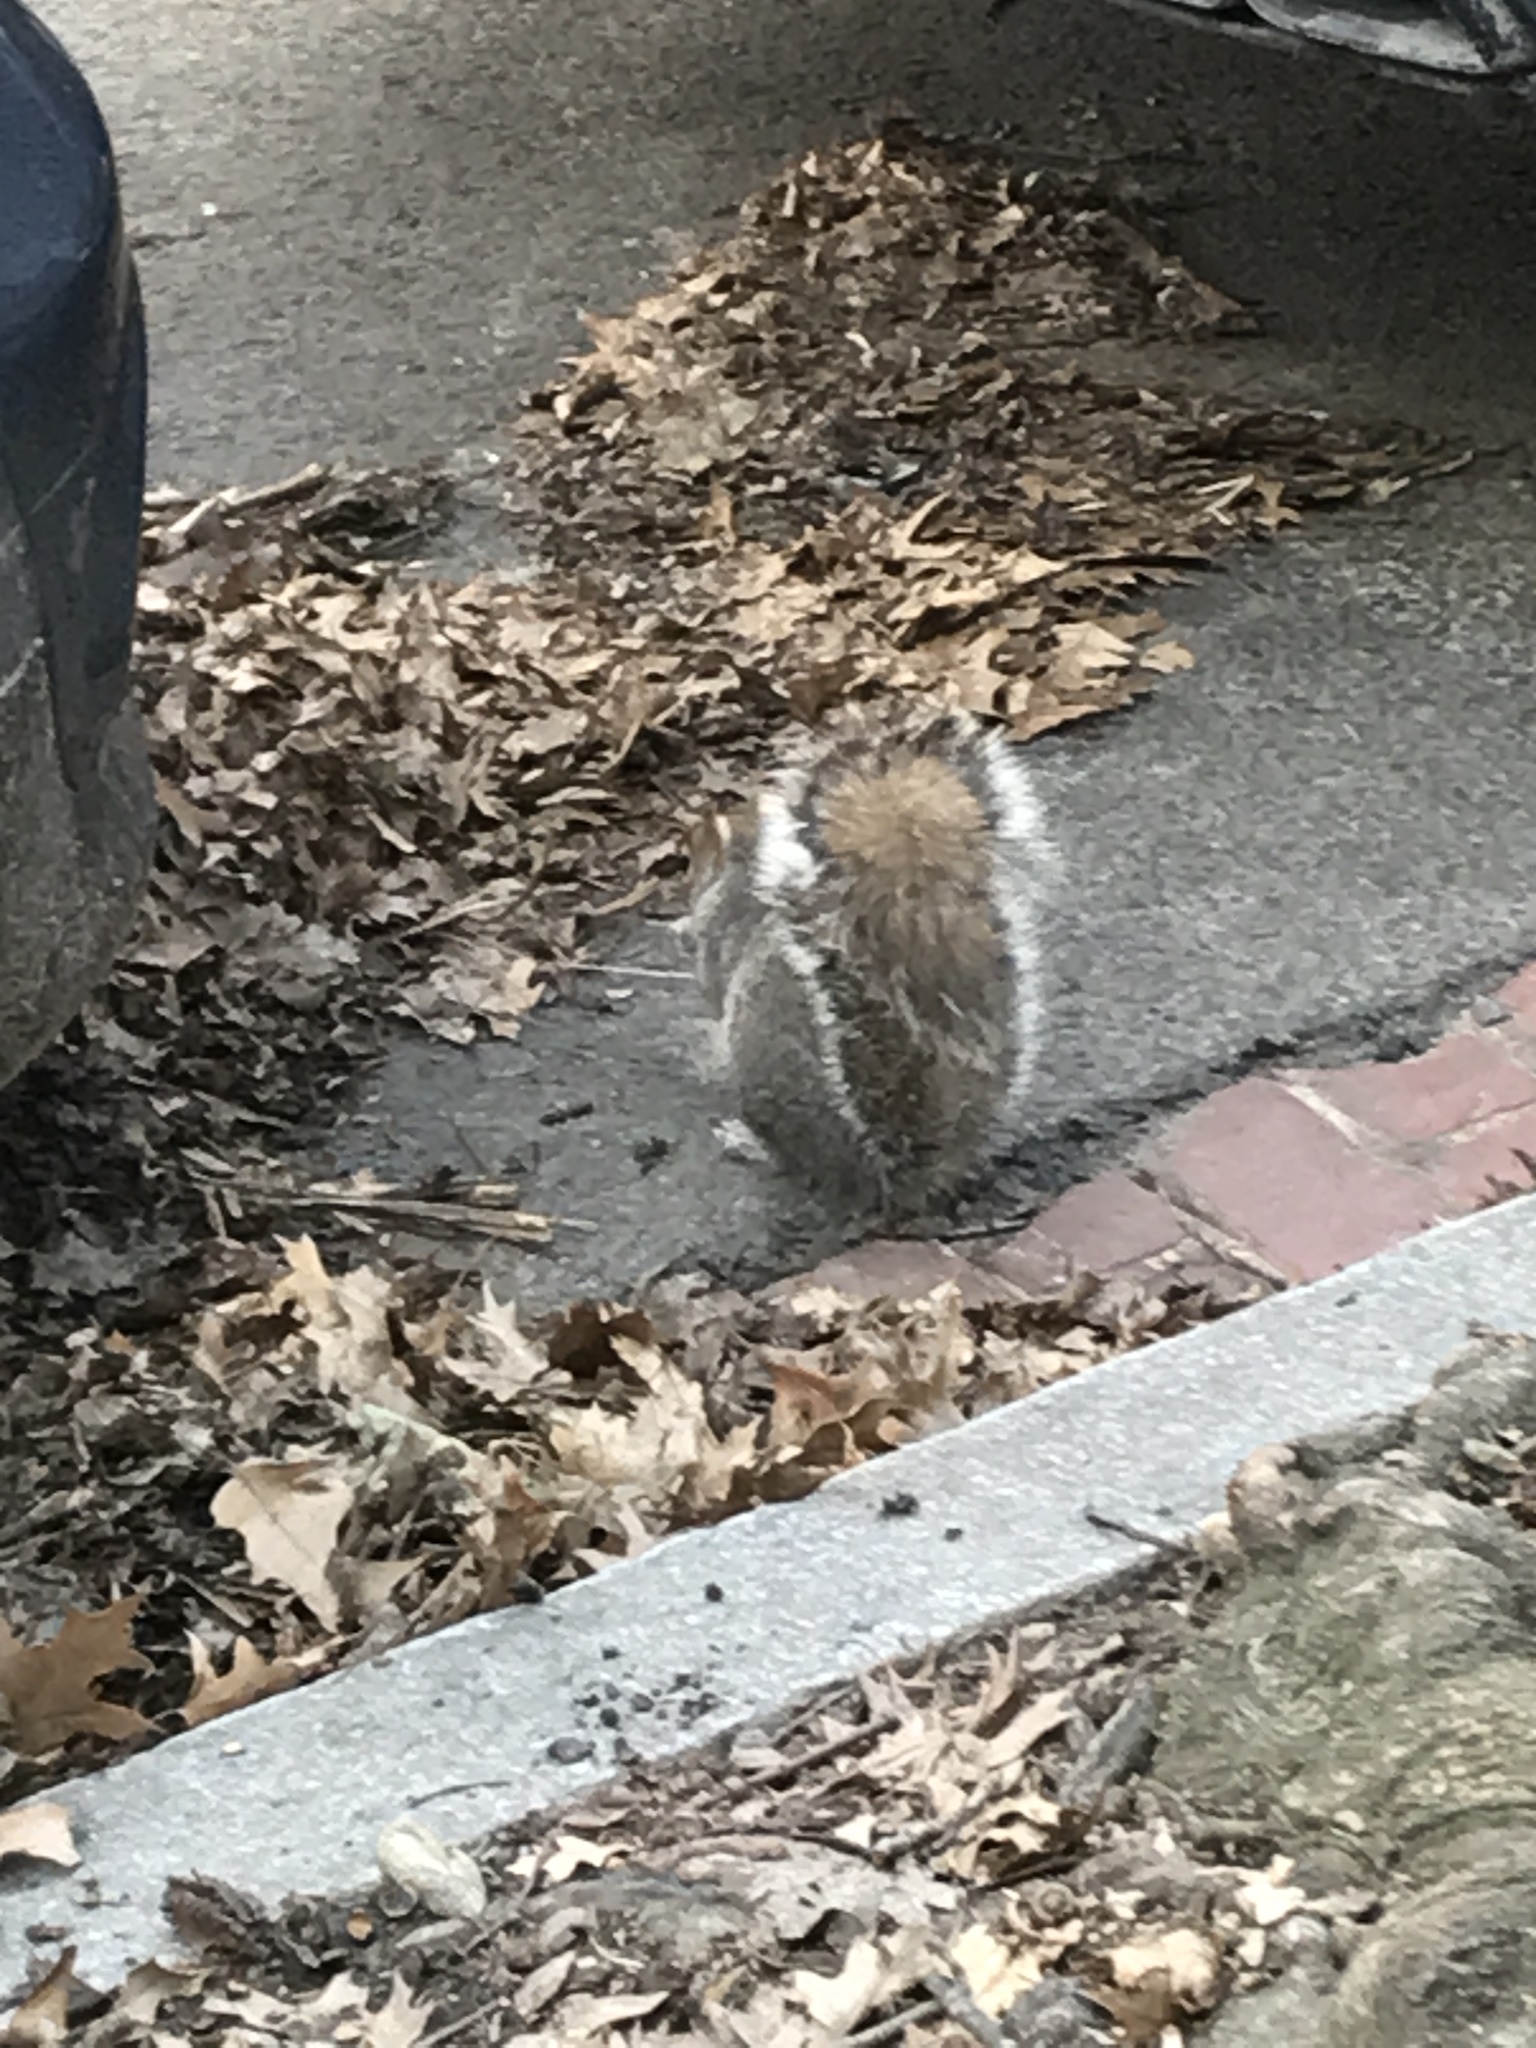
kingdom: Animalia
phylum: Chordata
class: Mammalia
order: Rodentia
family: Sciuridae
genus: Sciurus
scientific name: Sciurus carolinensis
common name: Eastern gray squirrel
